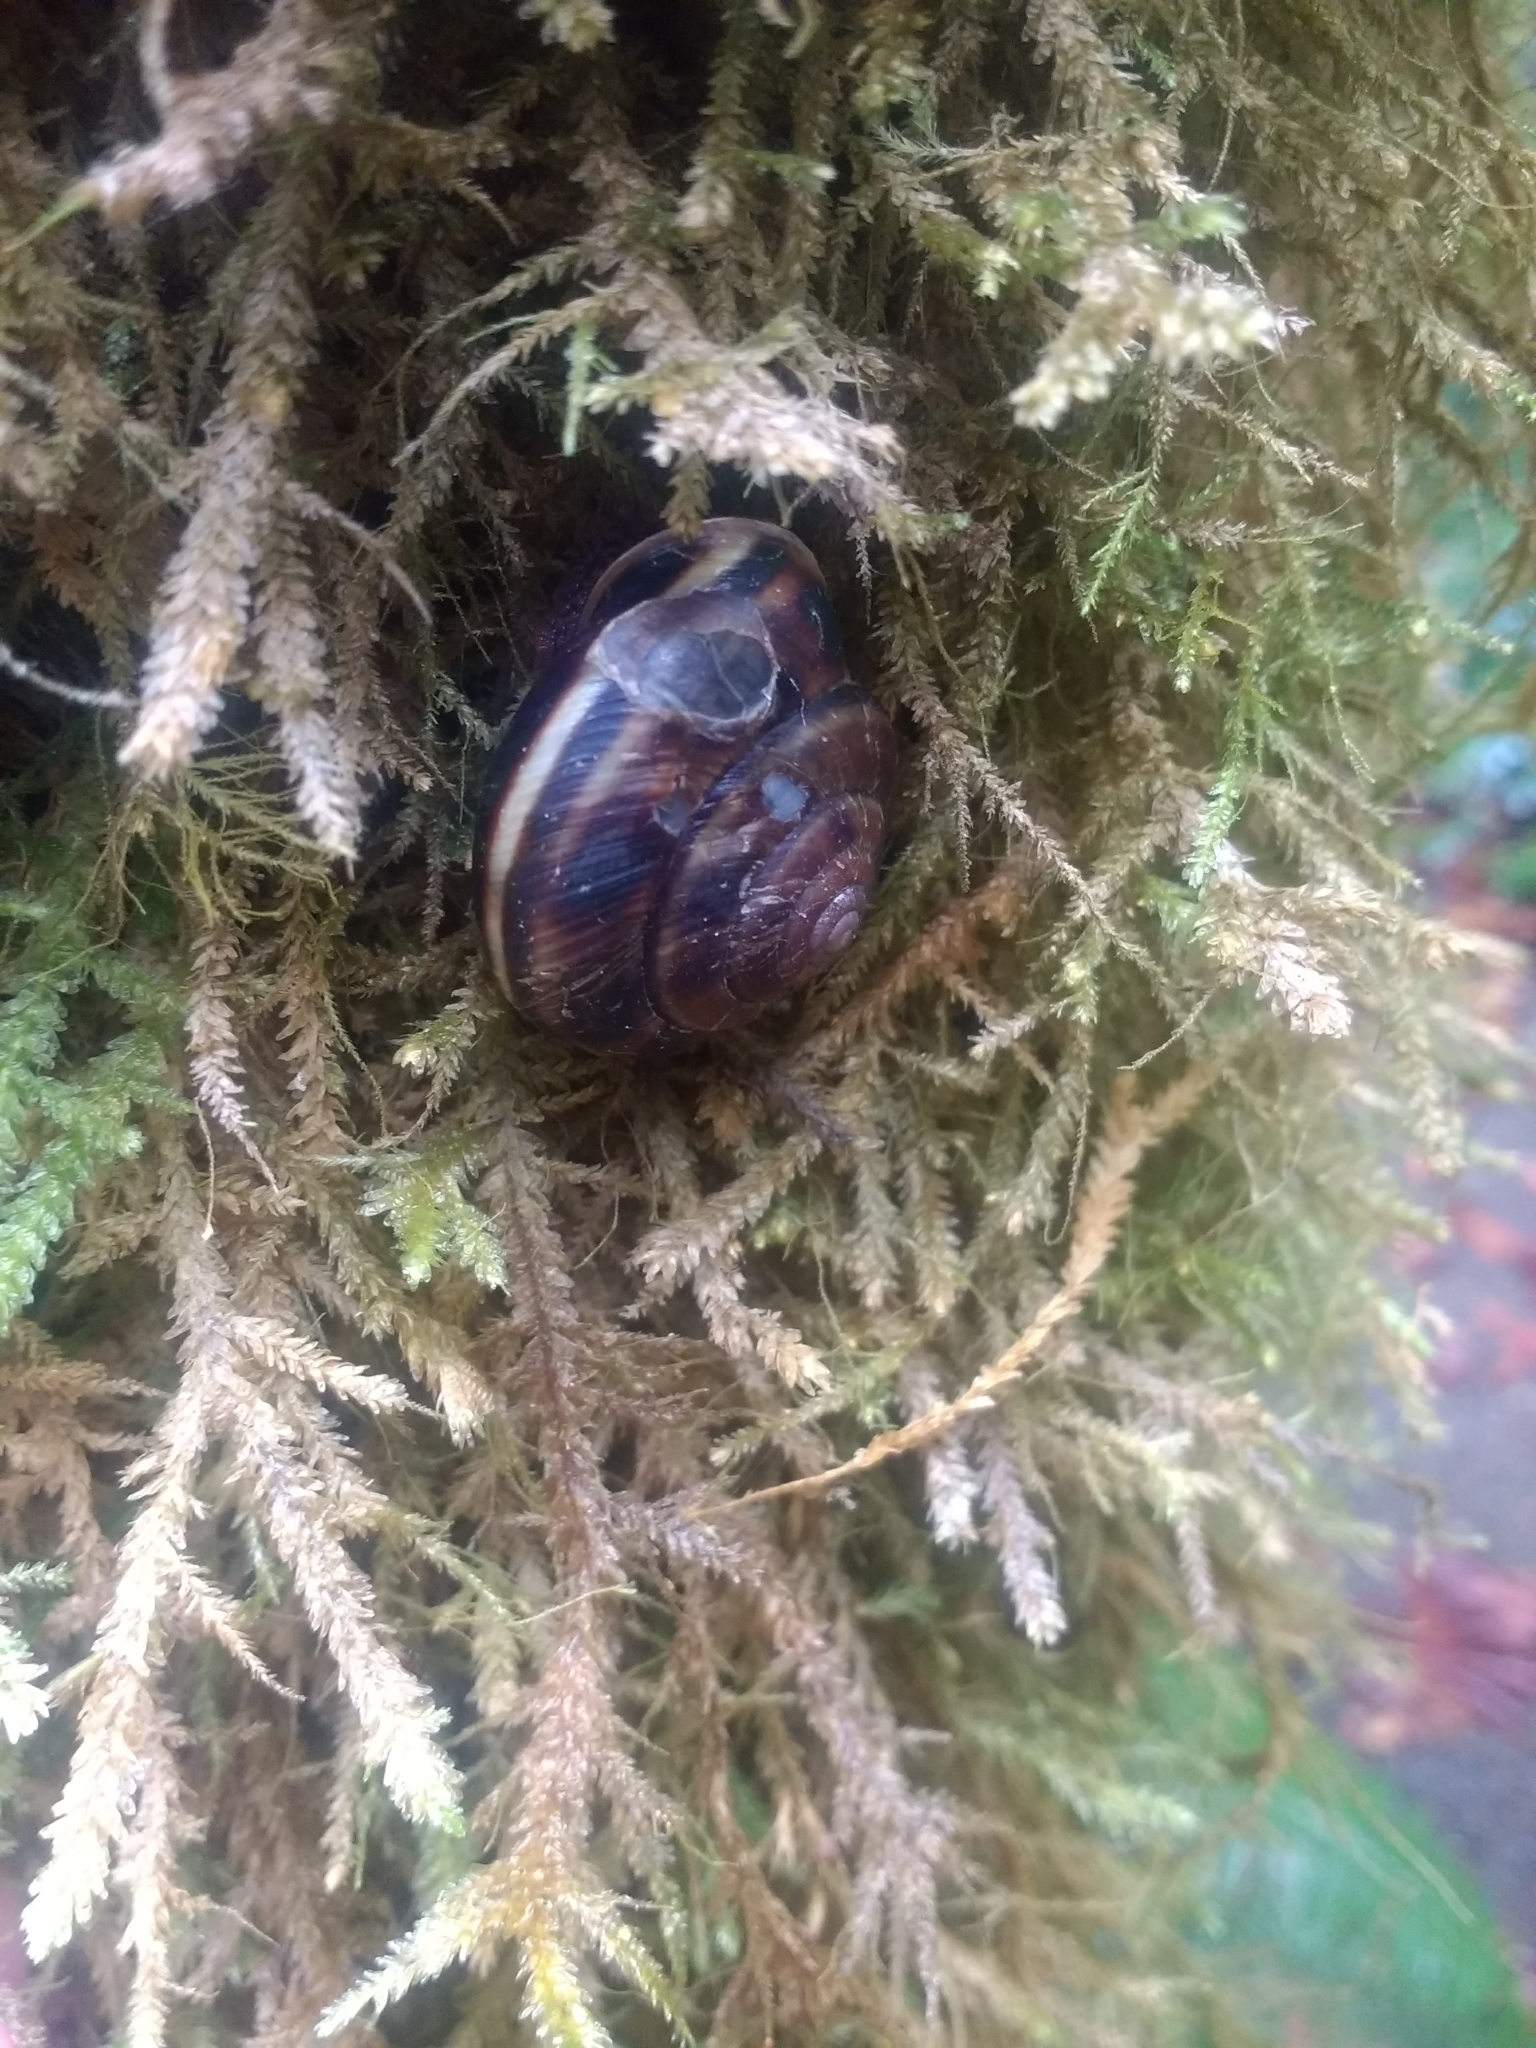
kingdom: Animalia
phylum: Mollusca
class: Gastropoda
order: Stylommatophora
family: Xanthonychidae
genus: Monadenia
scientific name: Monadenia fidelis
